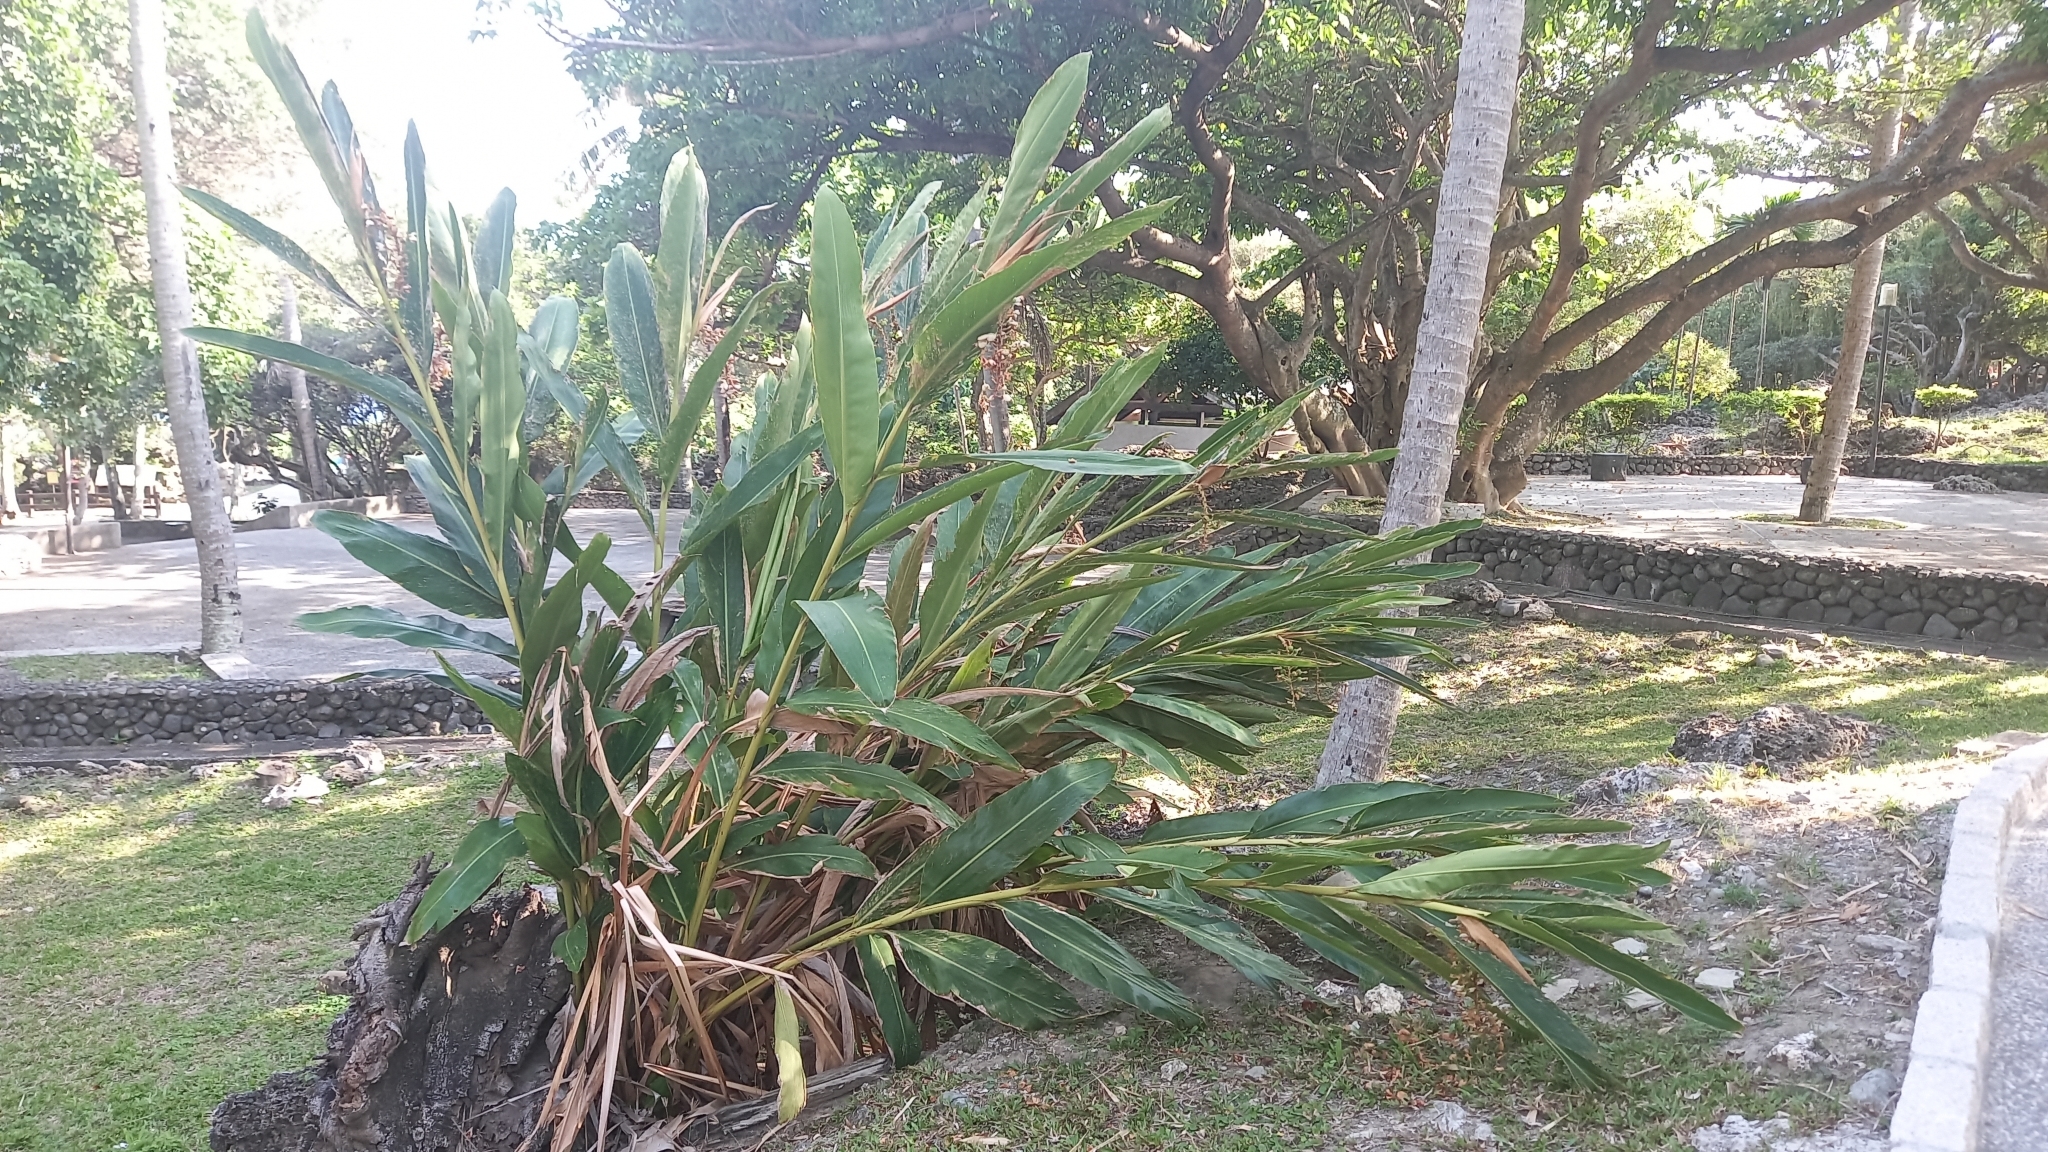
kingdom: Plantae
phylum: Tracheophyta
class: Liliopsida
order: Zingiberales
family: Zingiberaceae
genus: Alpinia
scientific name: Alpinia zerumbet
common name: Shellplant
